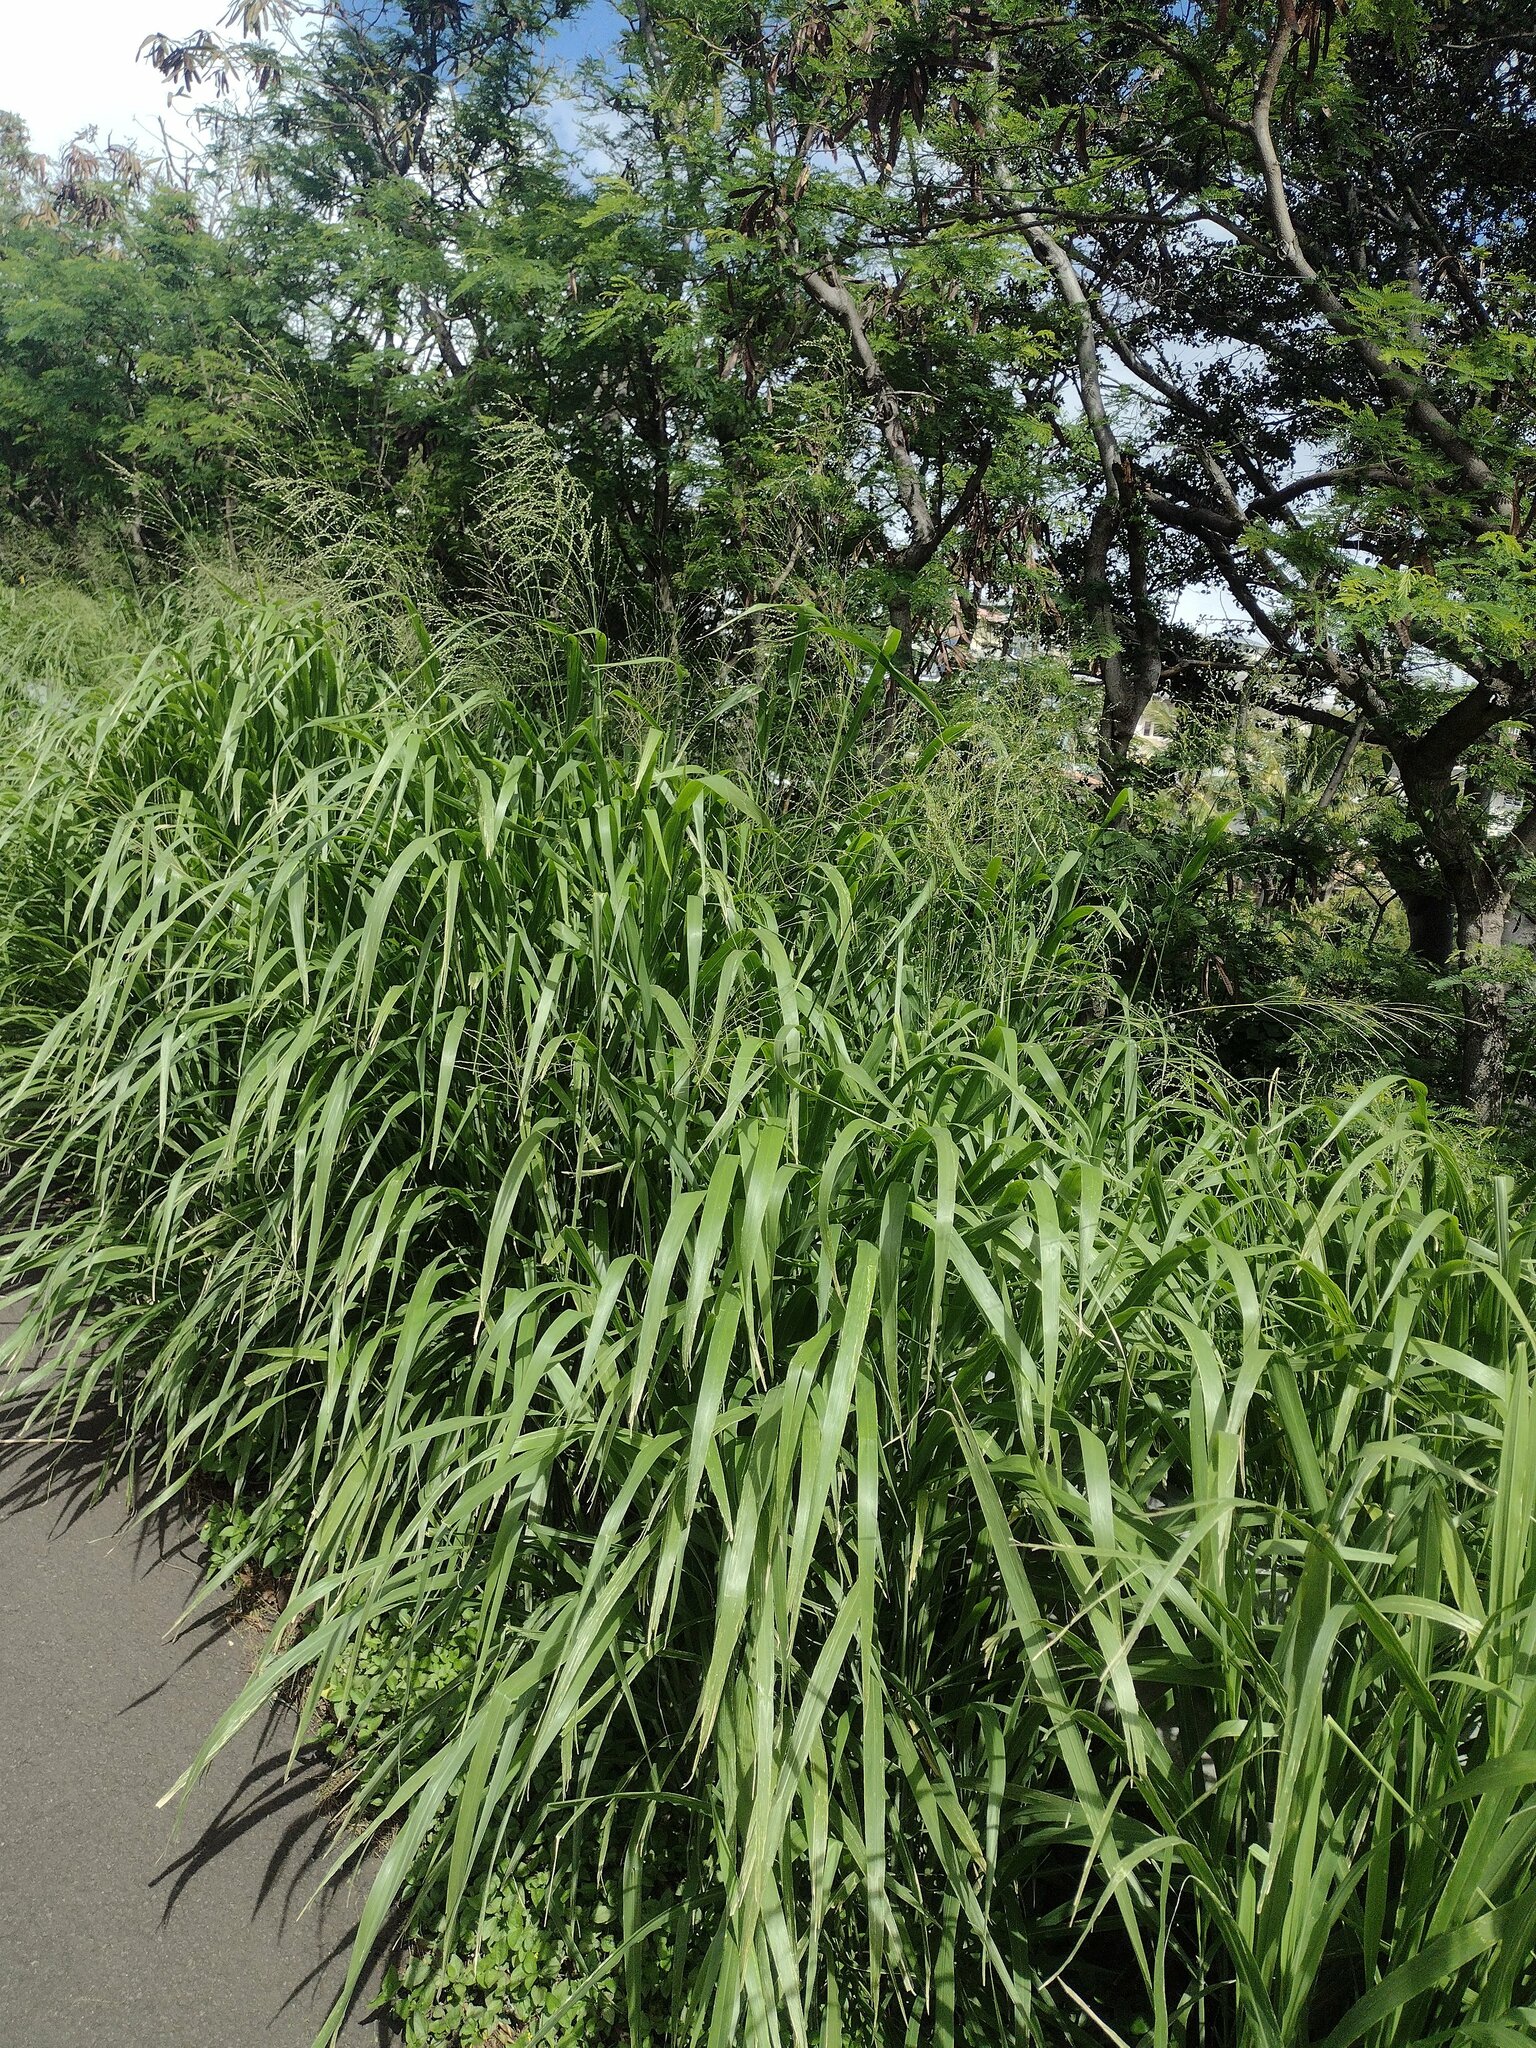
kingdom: Plantae
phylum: Tracheophyta
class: Liliopsida
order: Poales
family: Poaceae
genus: Megathyrsus
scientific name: Megathyrsus maximus
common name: Guineagrass
